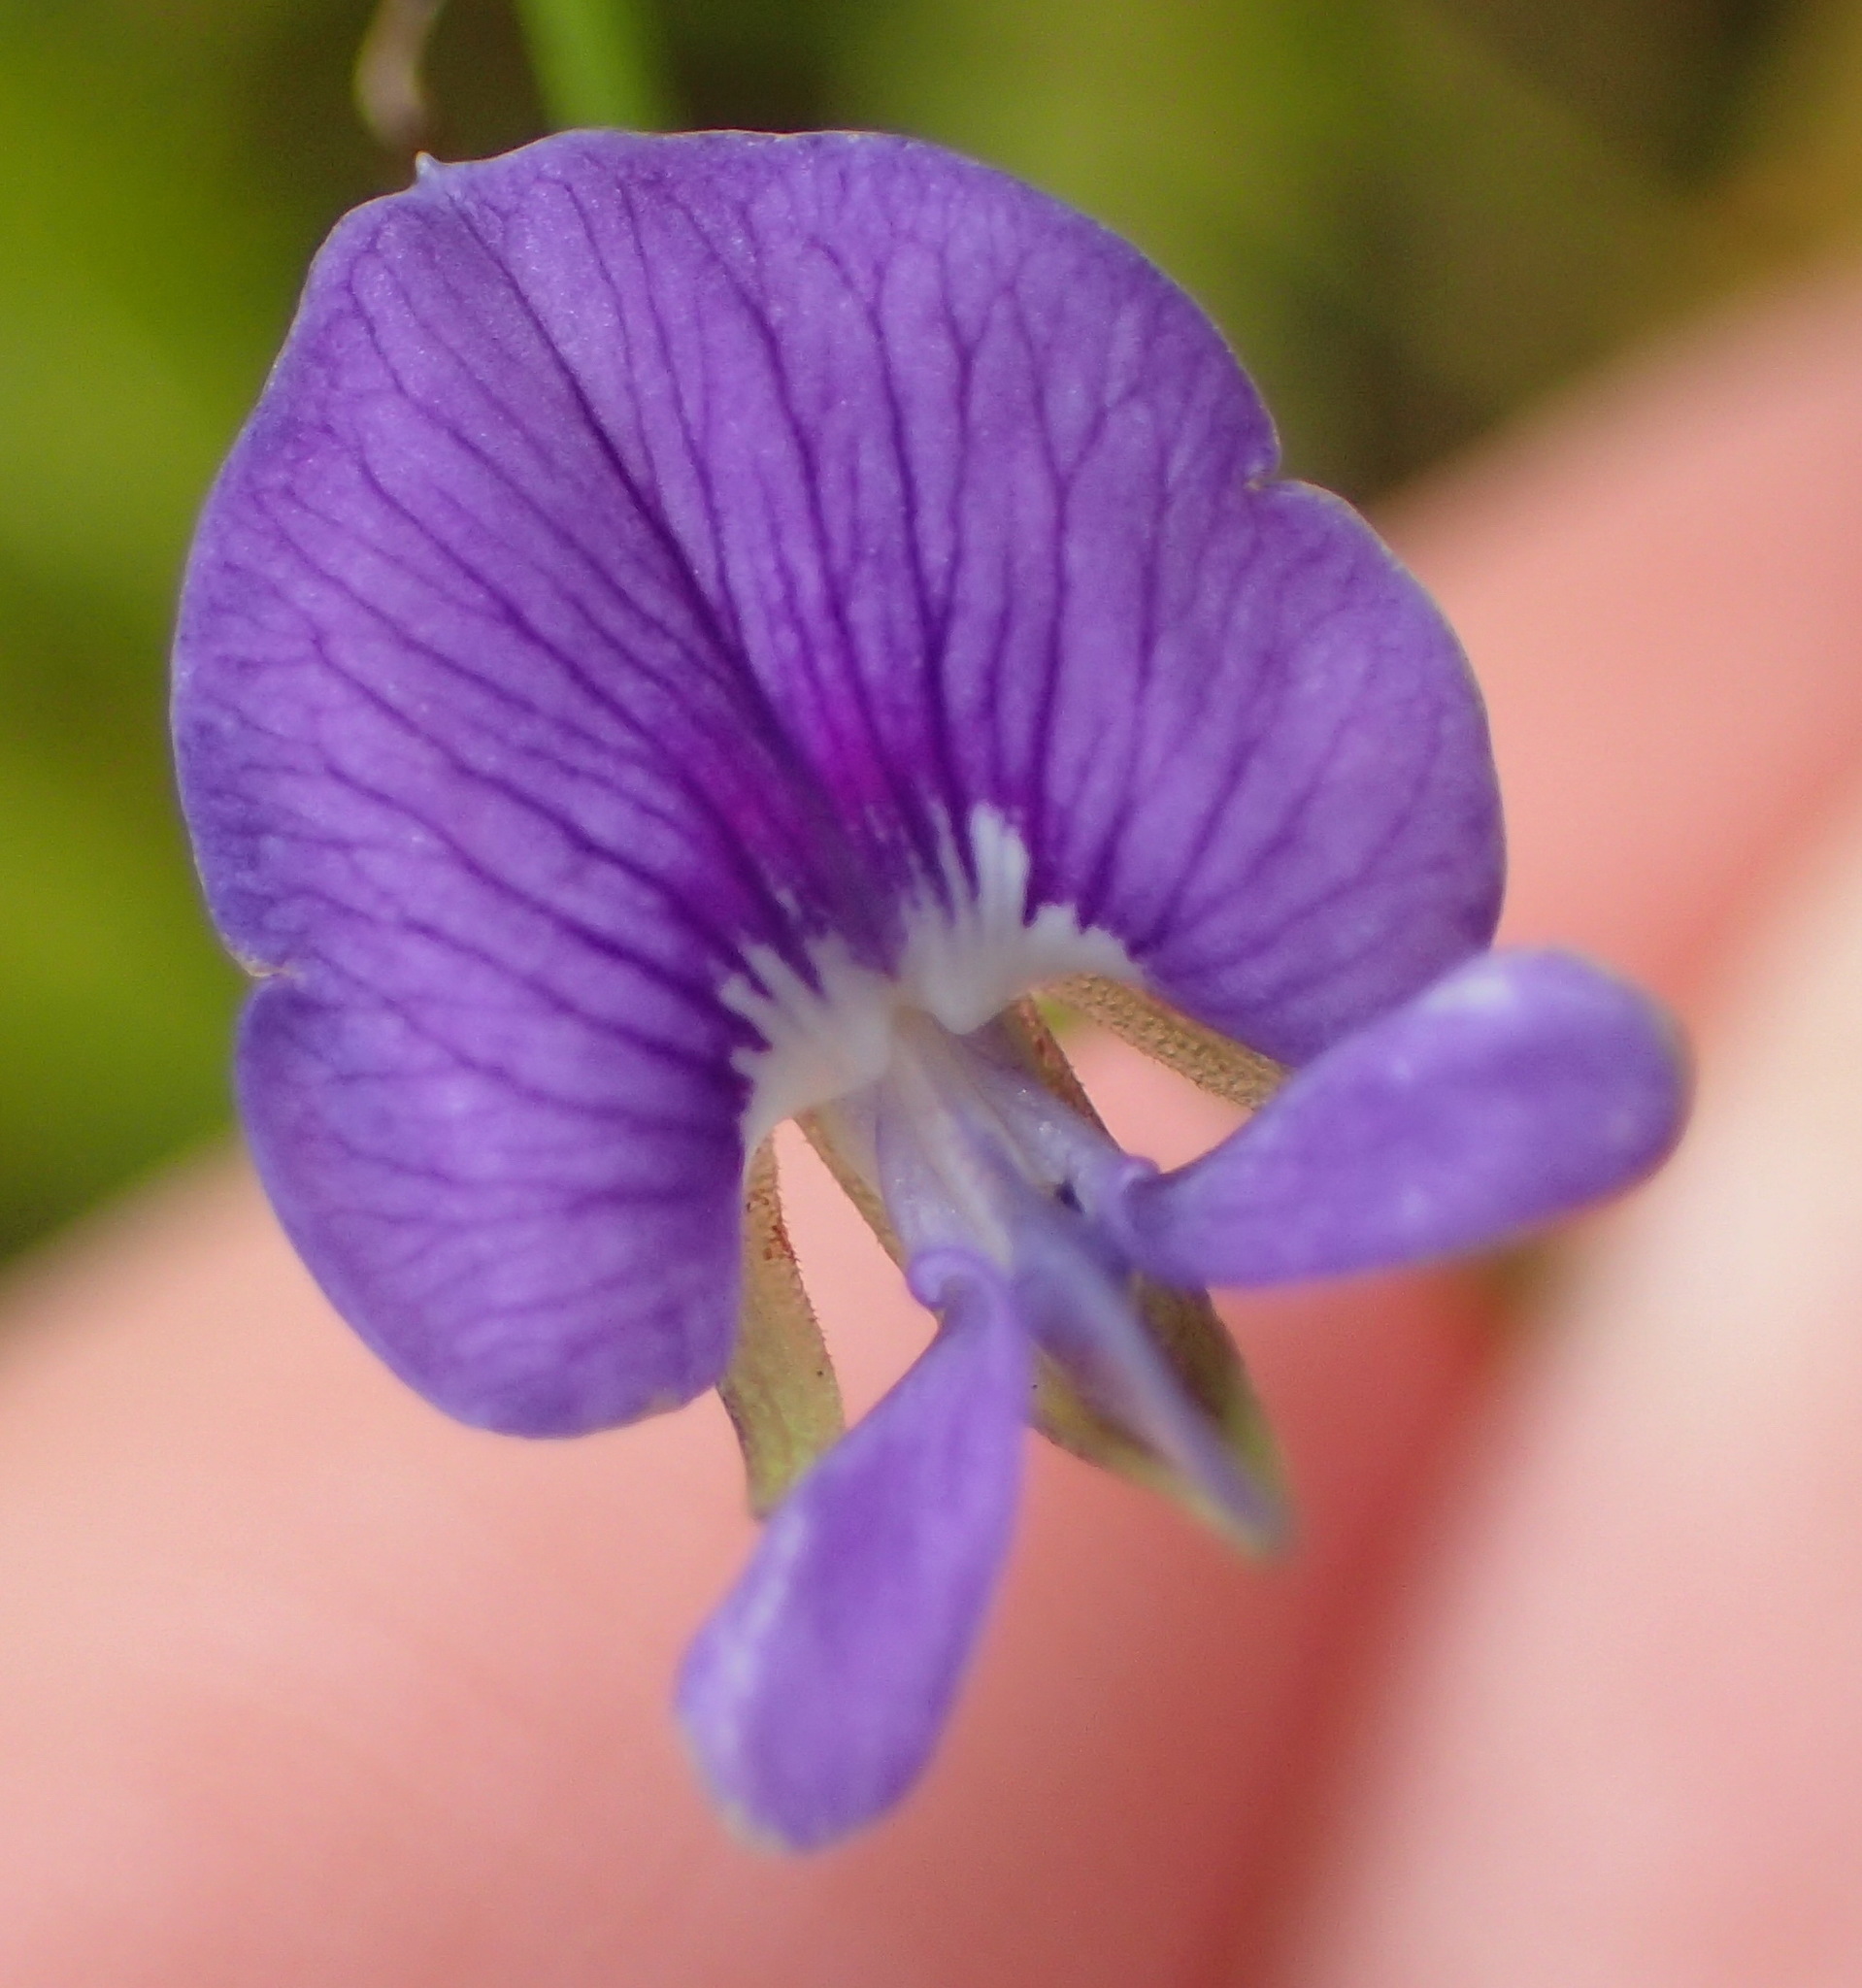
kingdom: Plantae
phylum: Tracheophyta
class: Magnoliopsida
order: Fabales
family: Fabaceae
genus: Psoralea
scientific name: Psoralea trullata
